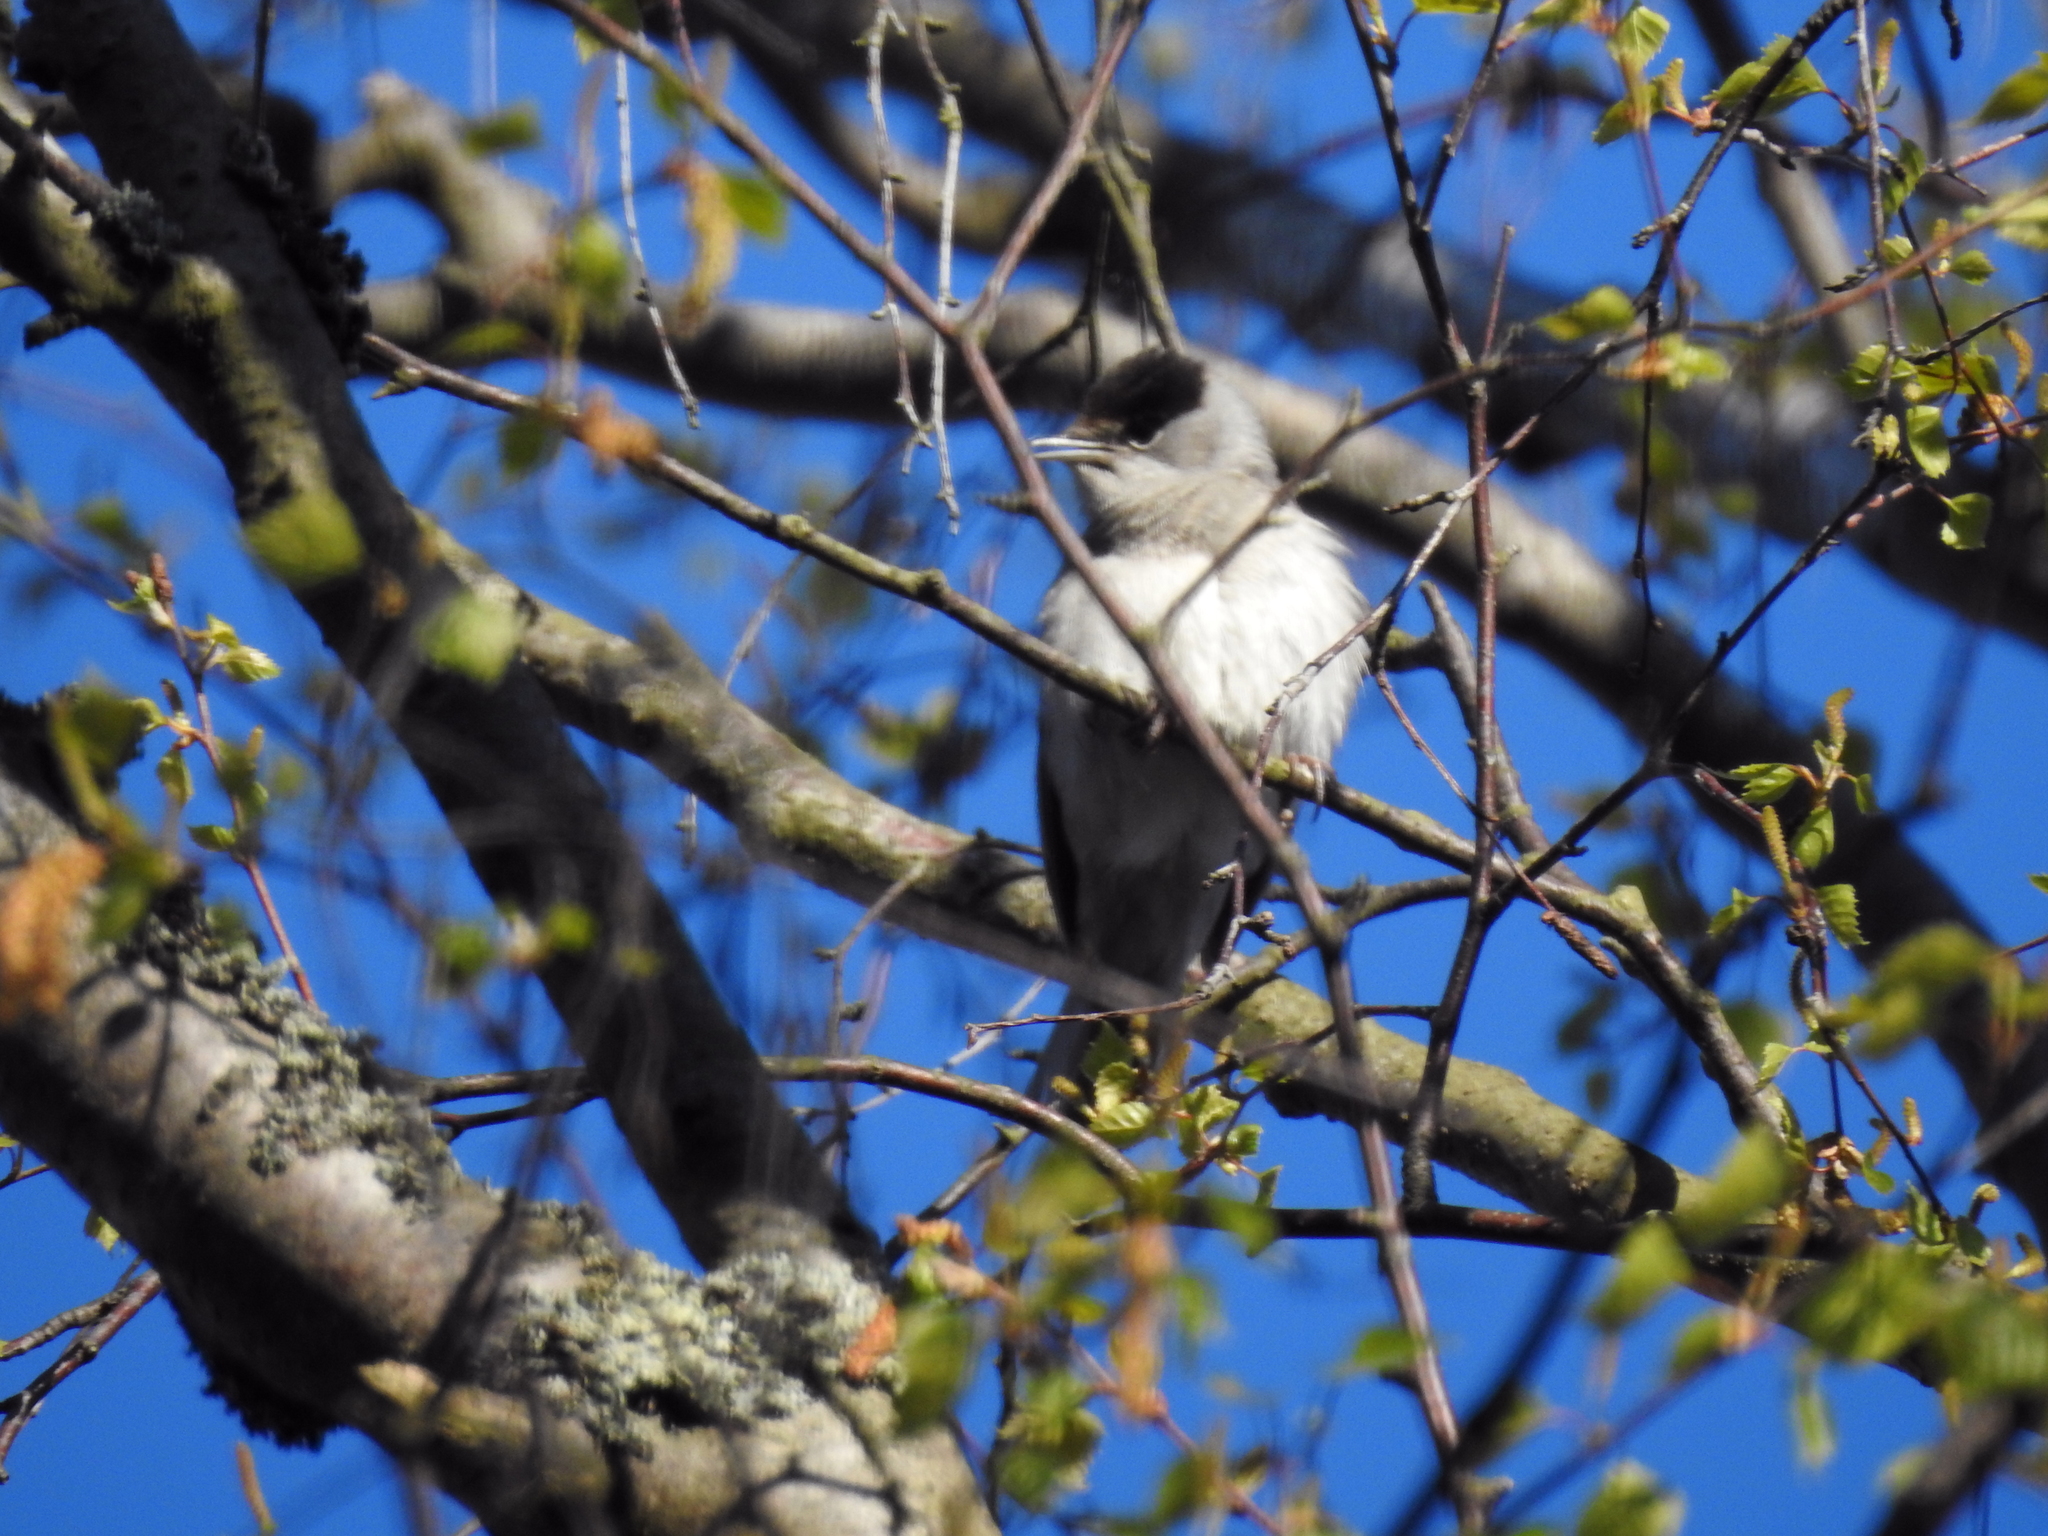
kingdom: Animalia
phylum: Chordata
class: Aves
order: Passeriformes
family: Sylviidae
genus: Sylvia
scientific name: Sylvia atricapilla
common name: Eurasian blackcap
